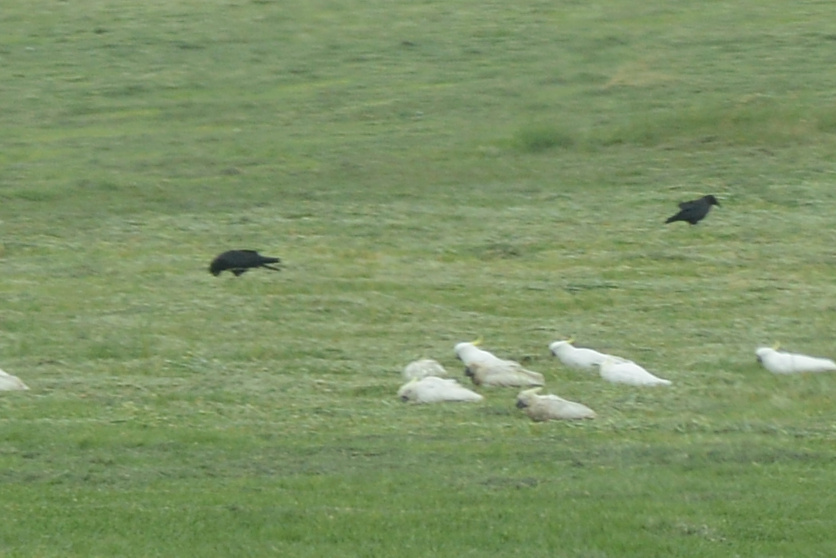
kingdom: Animalia
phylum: Chordata
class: Aves
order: Passeriformes
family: Corvidae
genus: Corvus
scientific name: Corvus tasmanicus
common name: Forest raven
